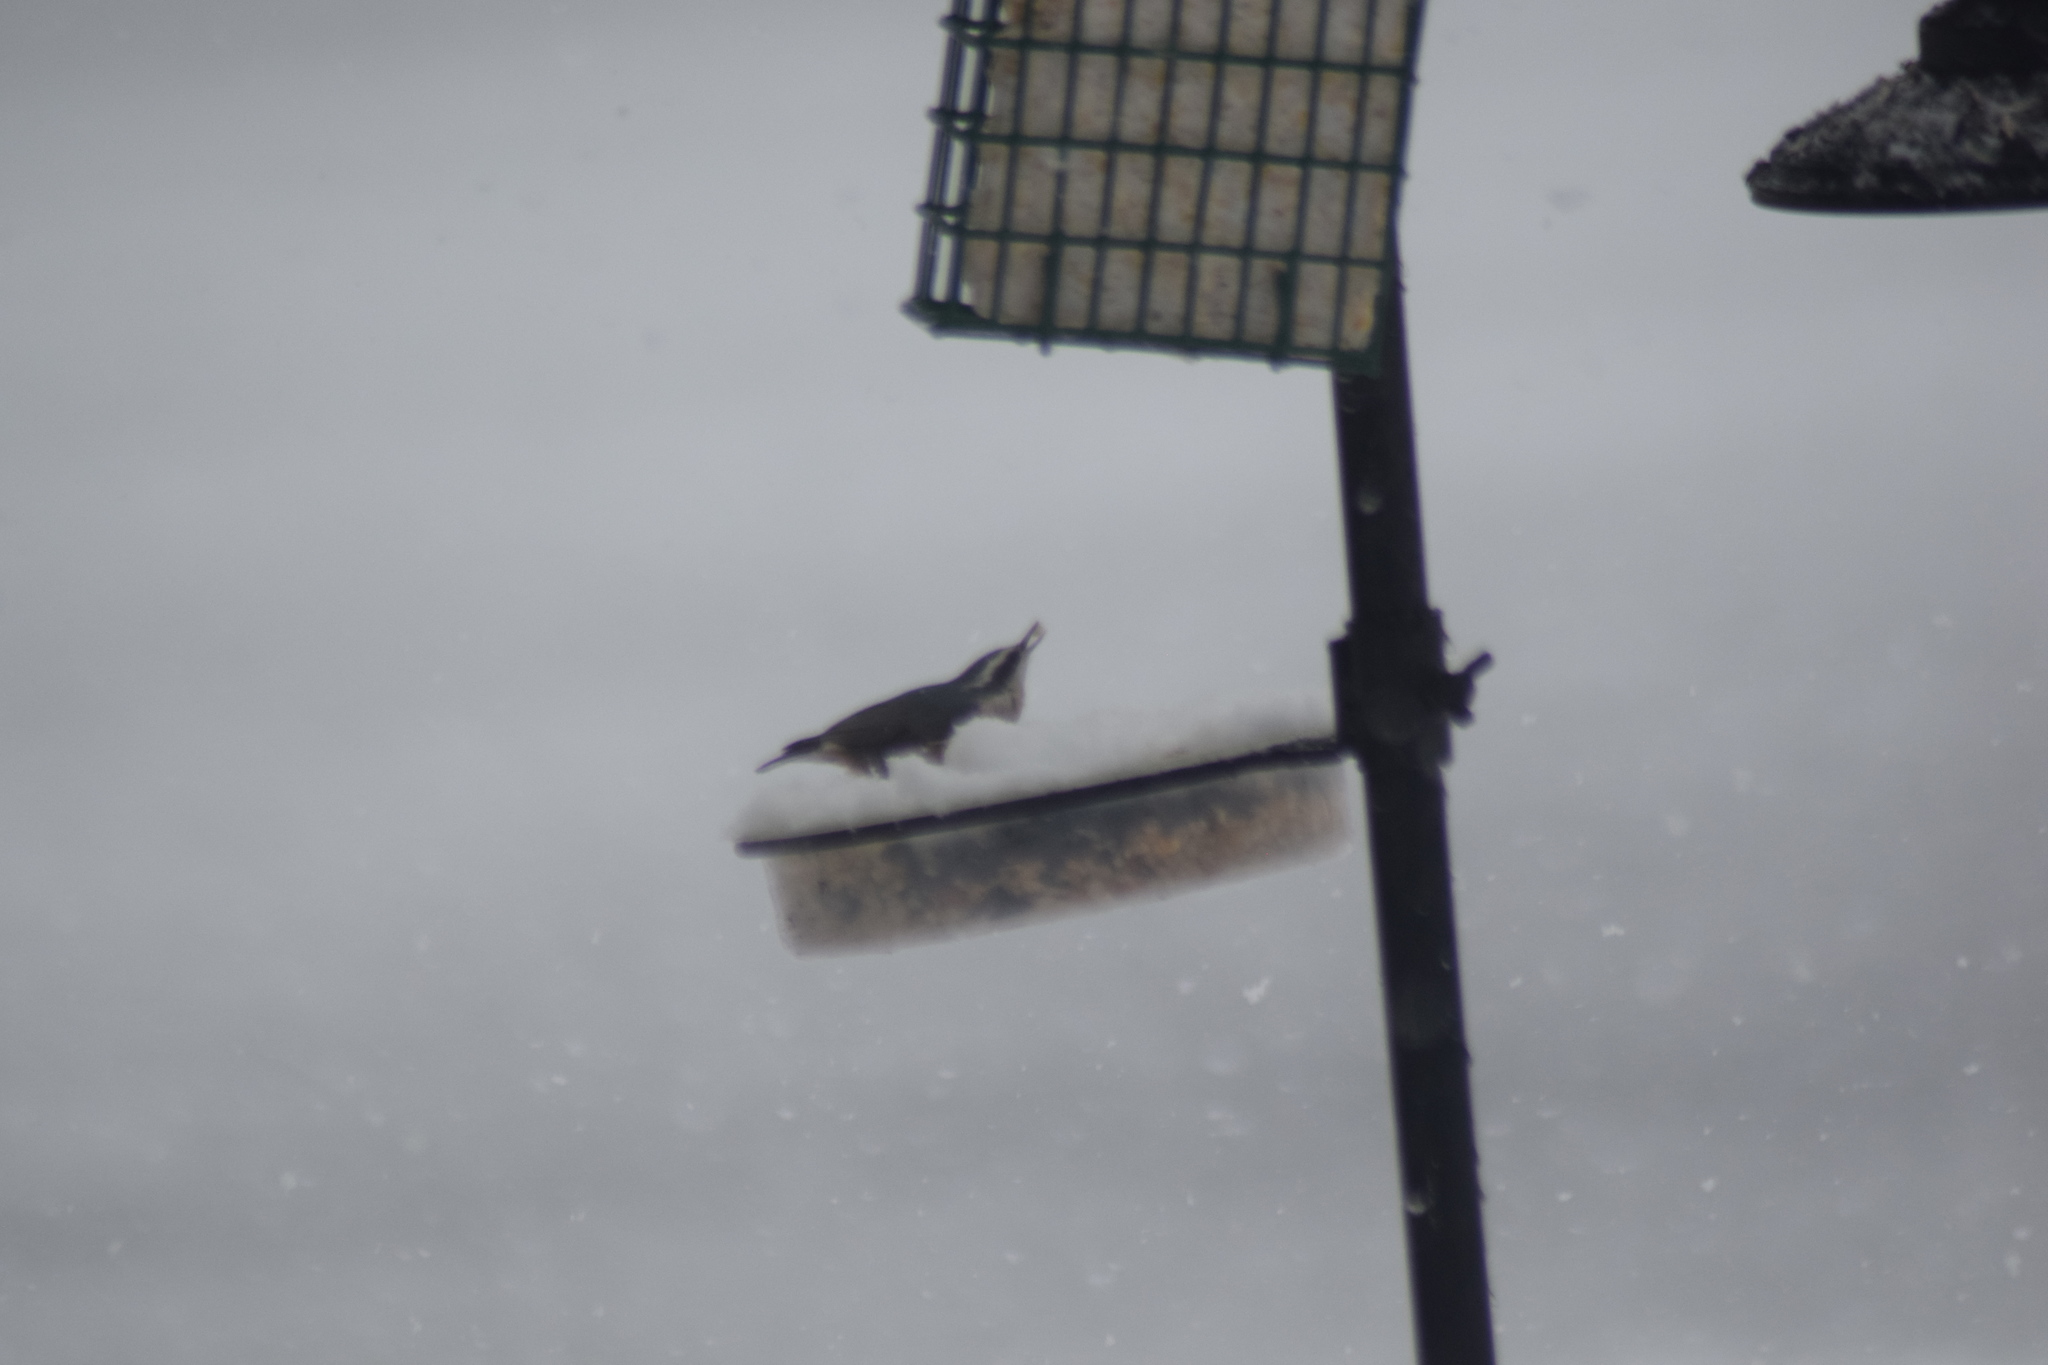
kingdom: Animalia
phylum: Chordata
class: Aves
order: Passeriformes
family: Sittidae
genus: Sitta
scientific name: Sitta canadensis
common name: Red-breasted nuthatch
